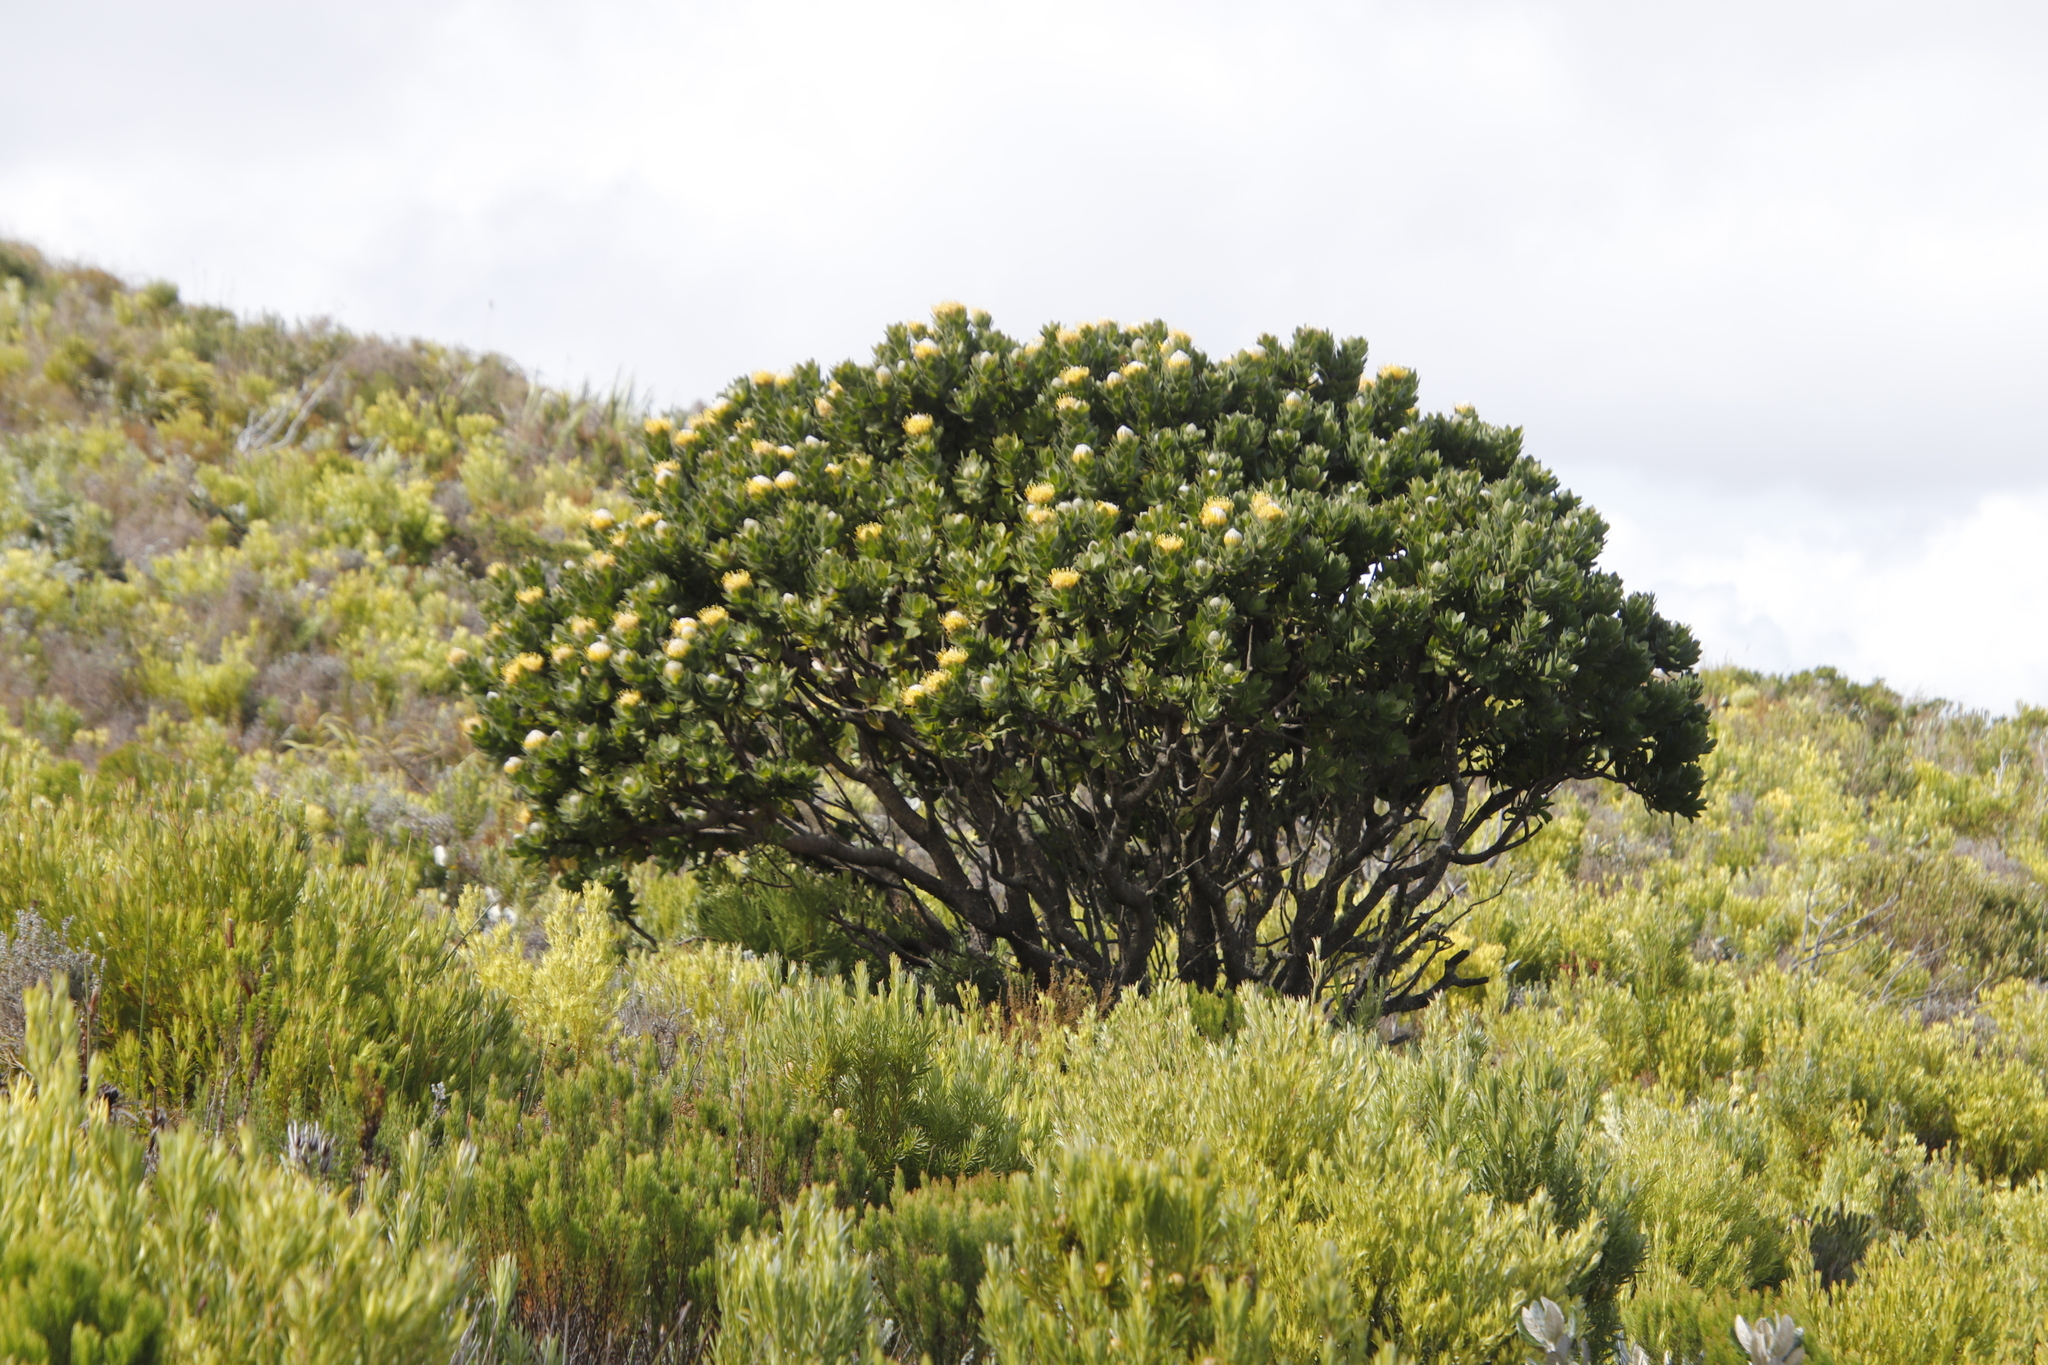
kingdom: Plantae
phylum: Tracheophyta
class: Magnoliopsida
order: Proteales
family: Proteaceae
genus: Leucospermum
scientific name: Leucospermum conocarpodendron
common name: Tree pincushion
